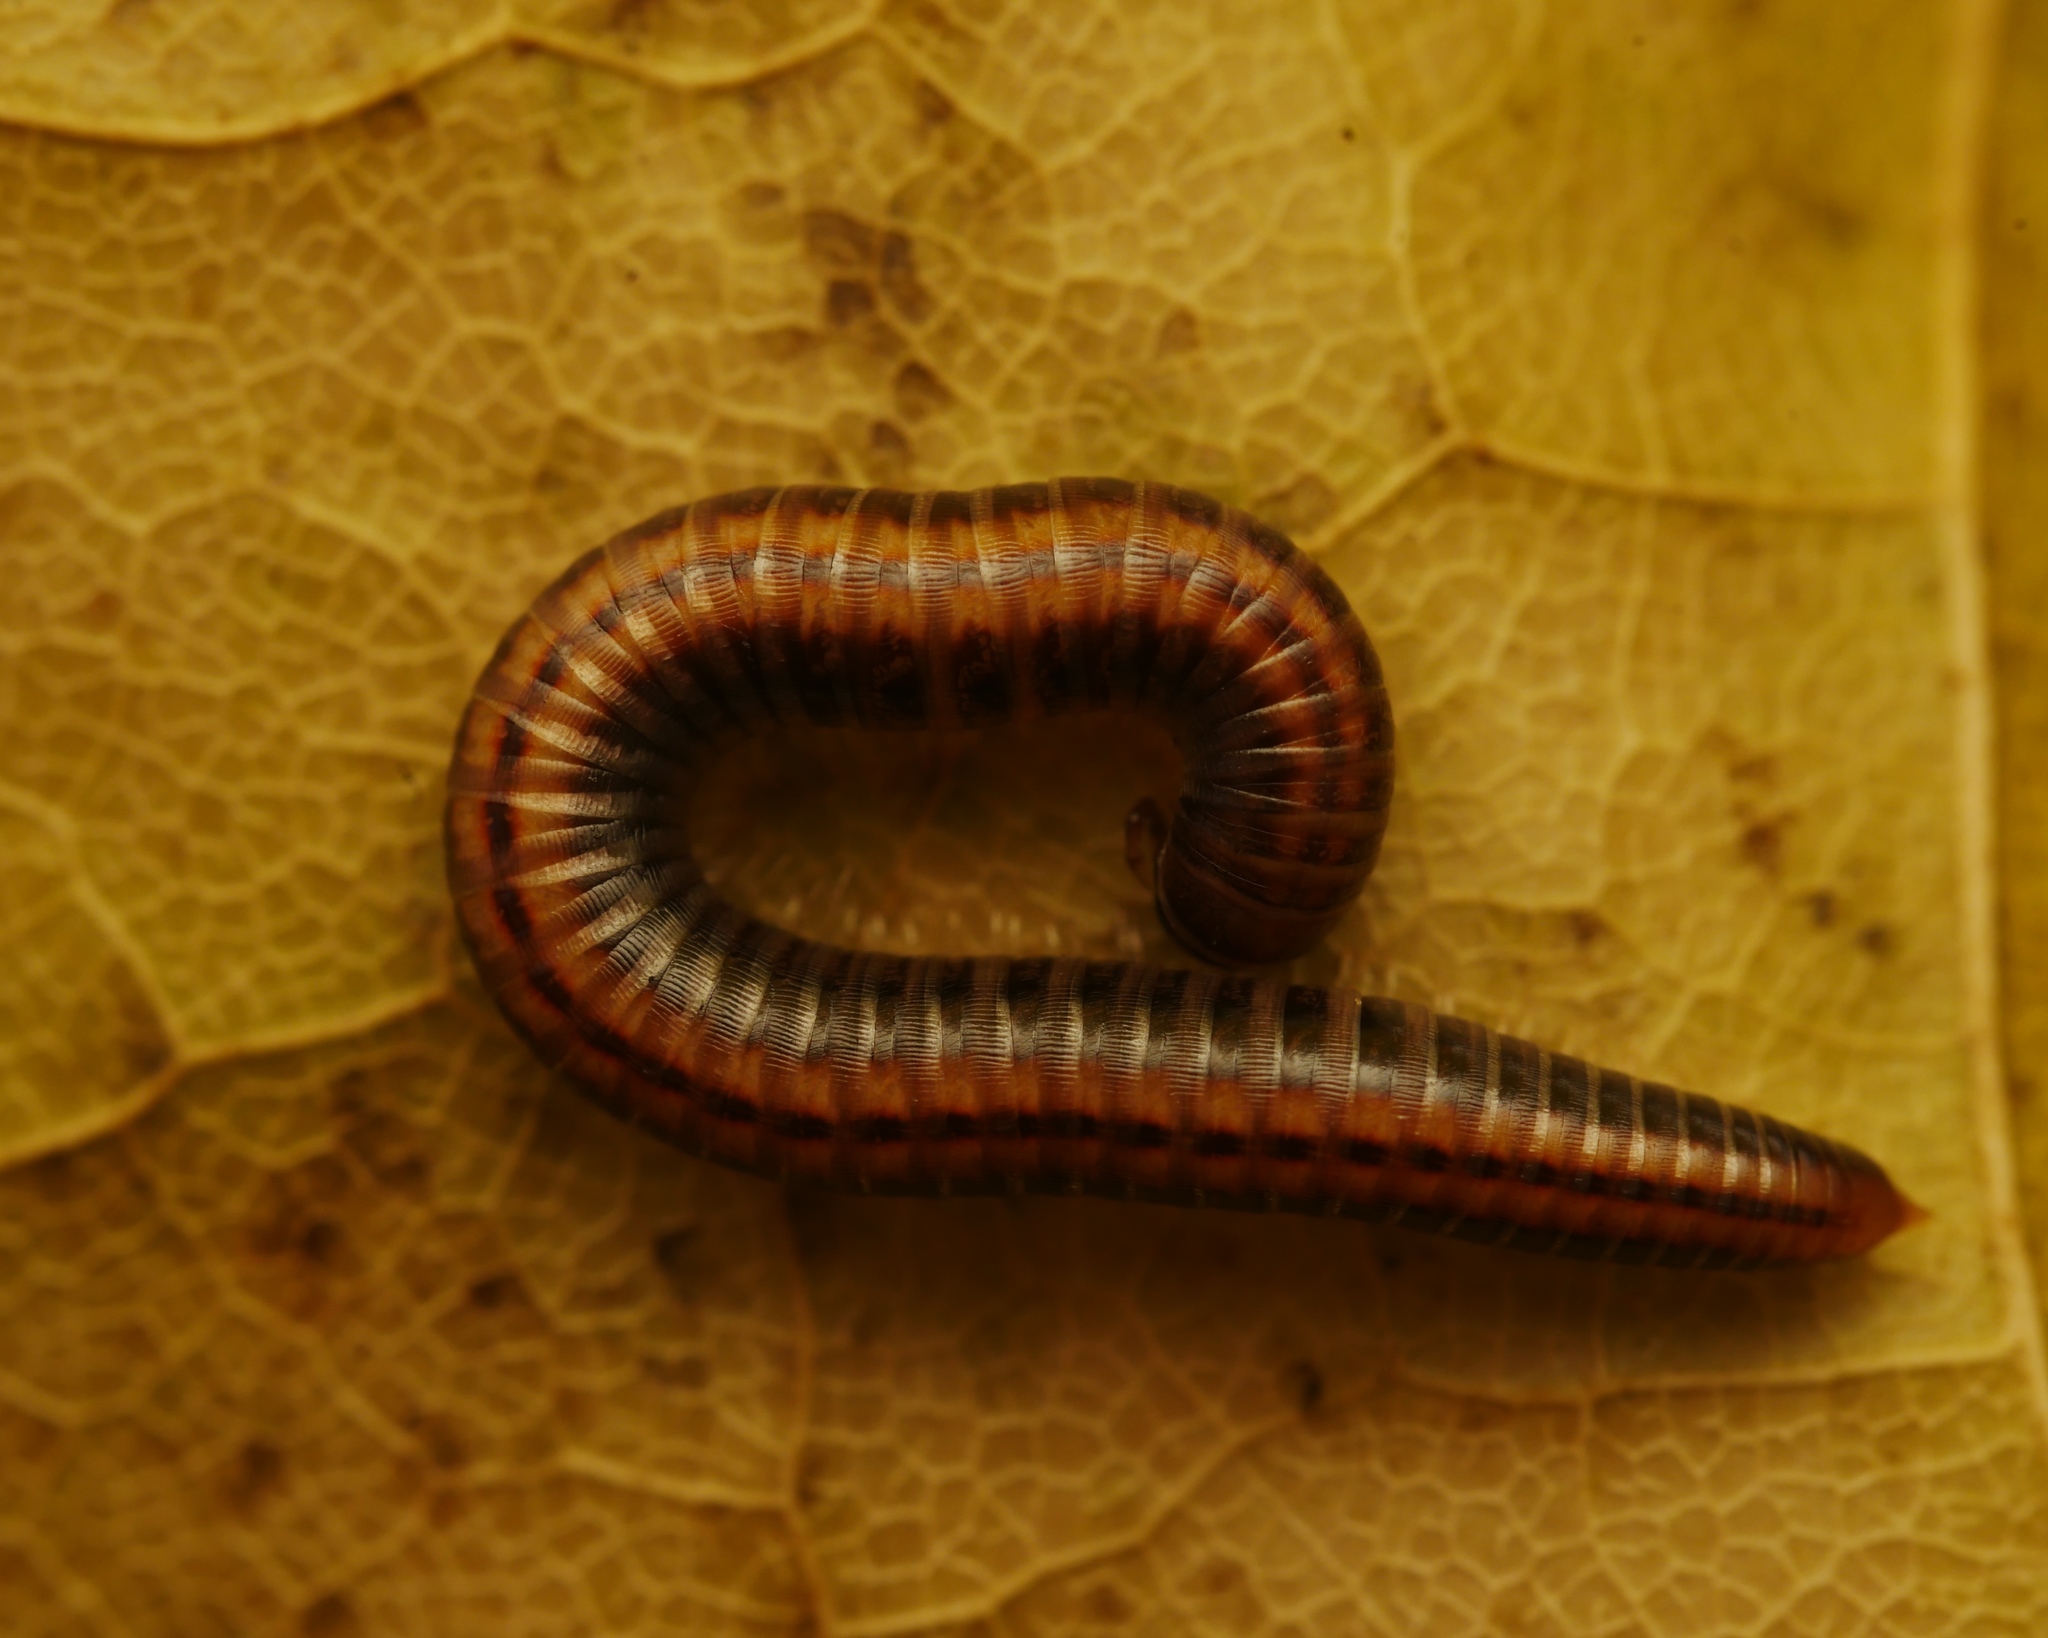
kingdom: Animalia
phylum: Arthropoda
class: Diplopoda
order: Julida
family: Julidae
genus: Ommatoiulus
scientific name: Ommatoiulus sabulosus
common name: Striped millipede
